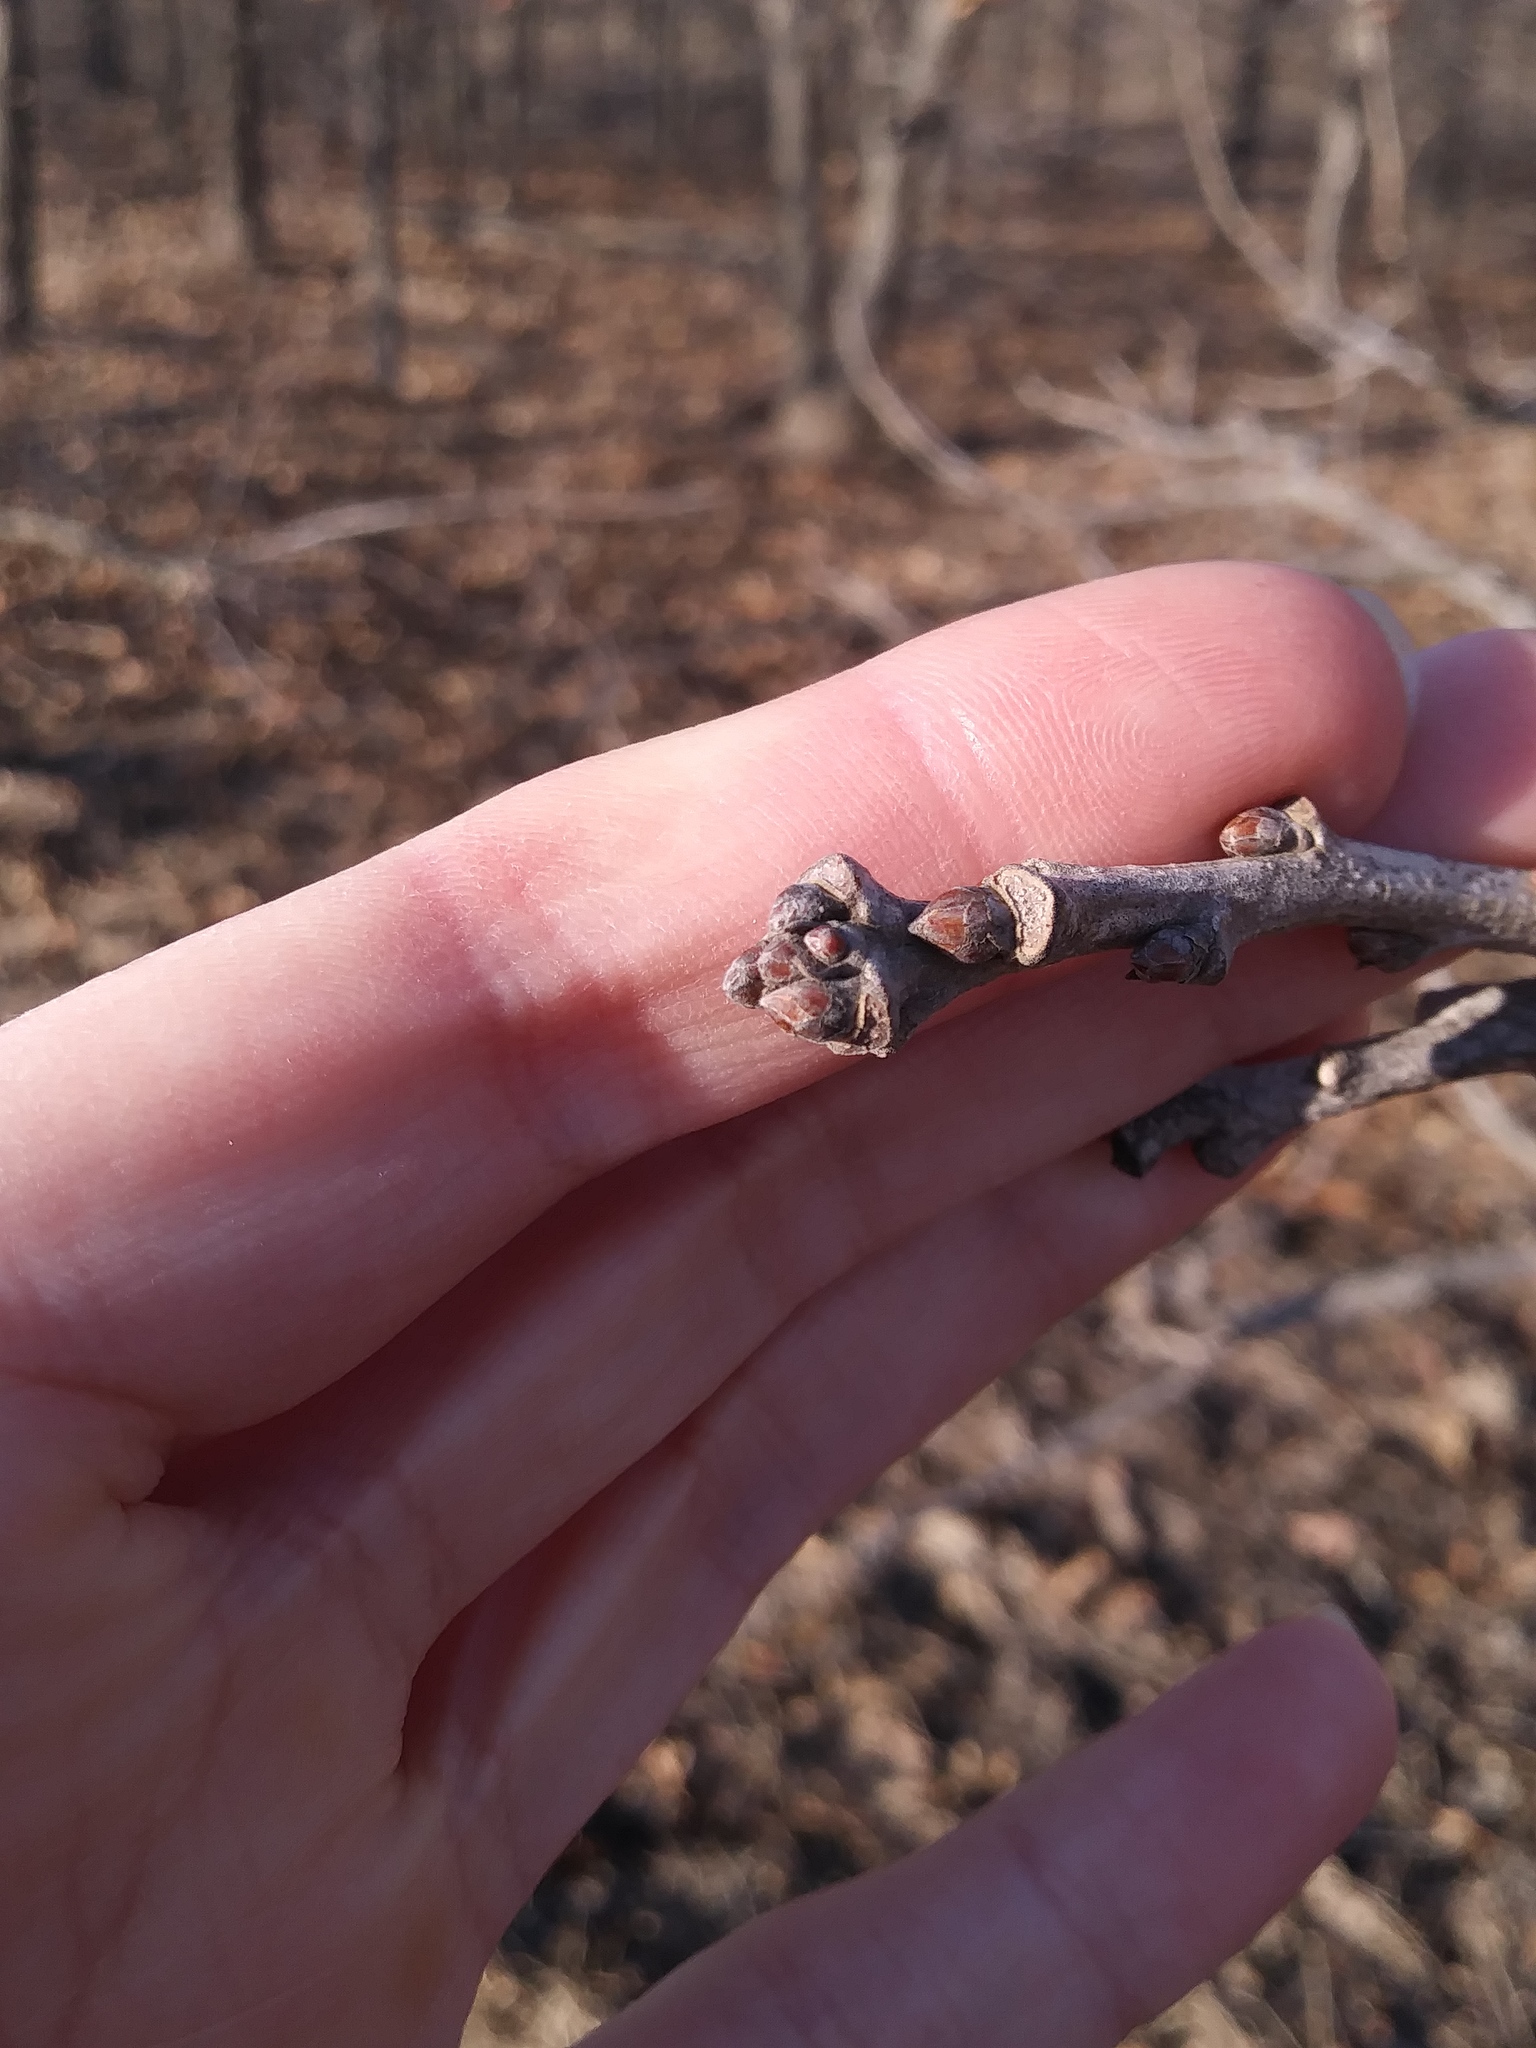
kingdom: Animalia
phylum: Arthropoda
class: Insecta
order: Hymenoptera
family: Cynipidae
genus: Disholcaspis
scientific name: Disholcaspis
